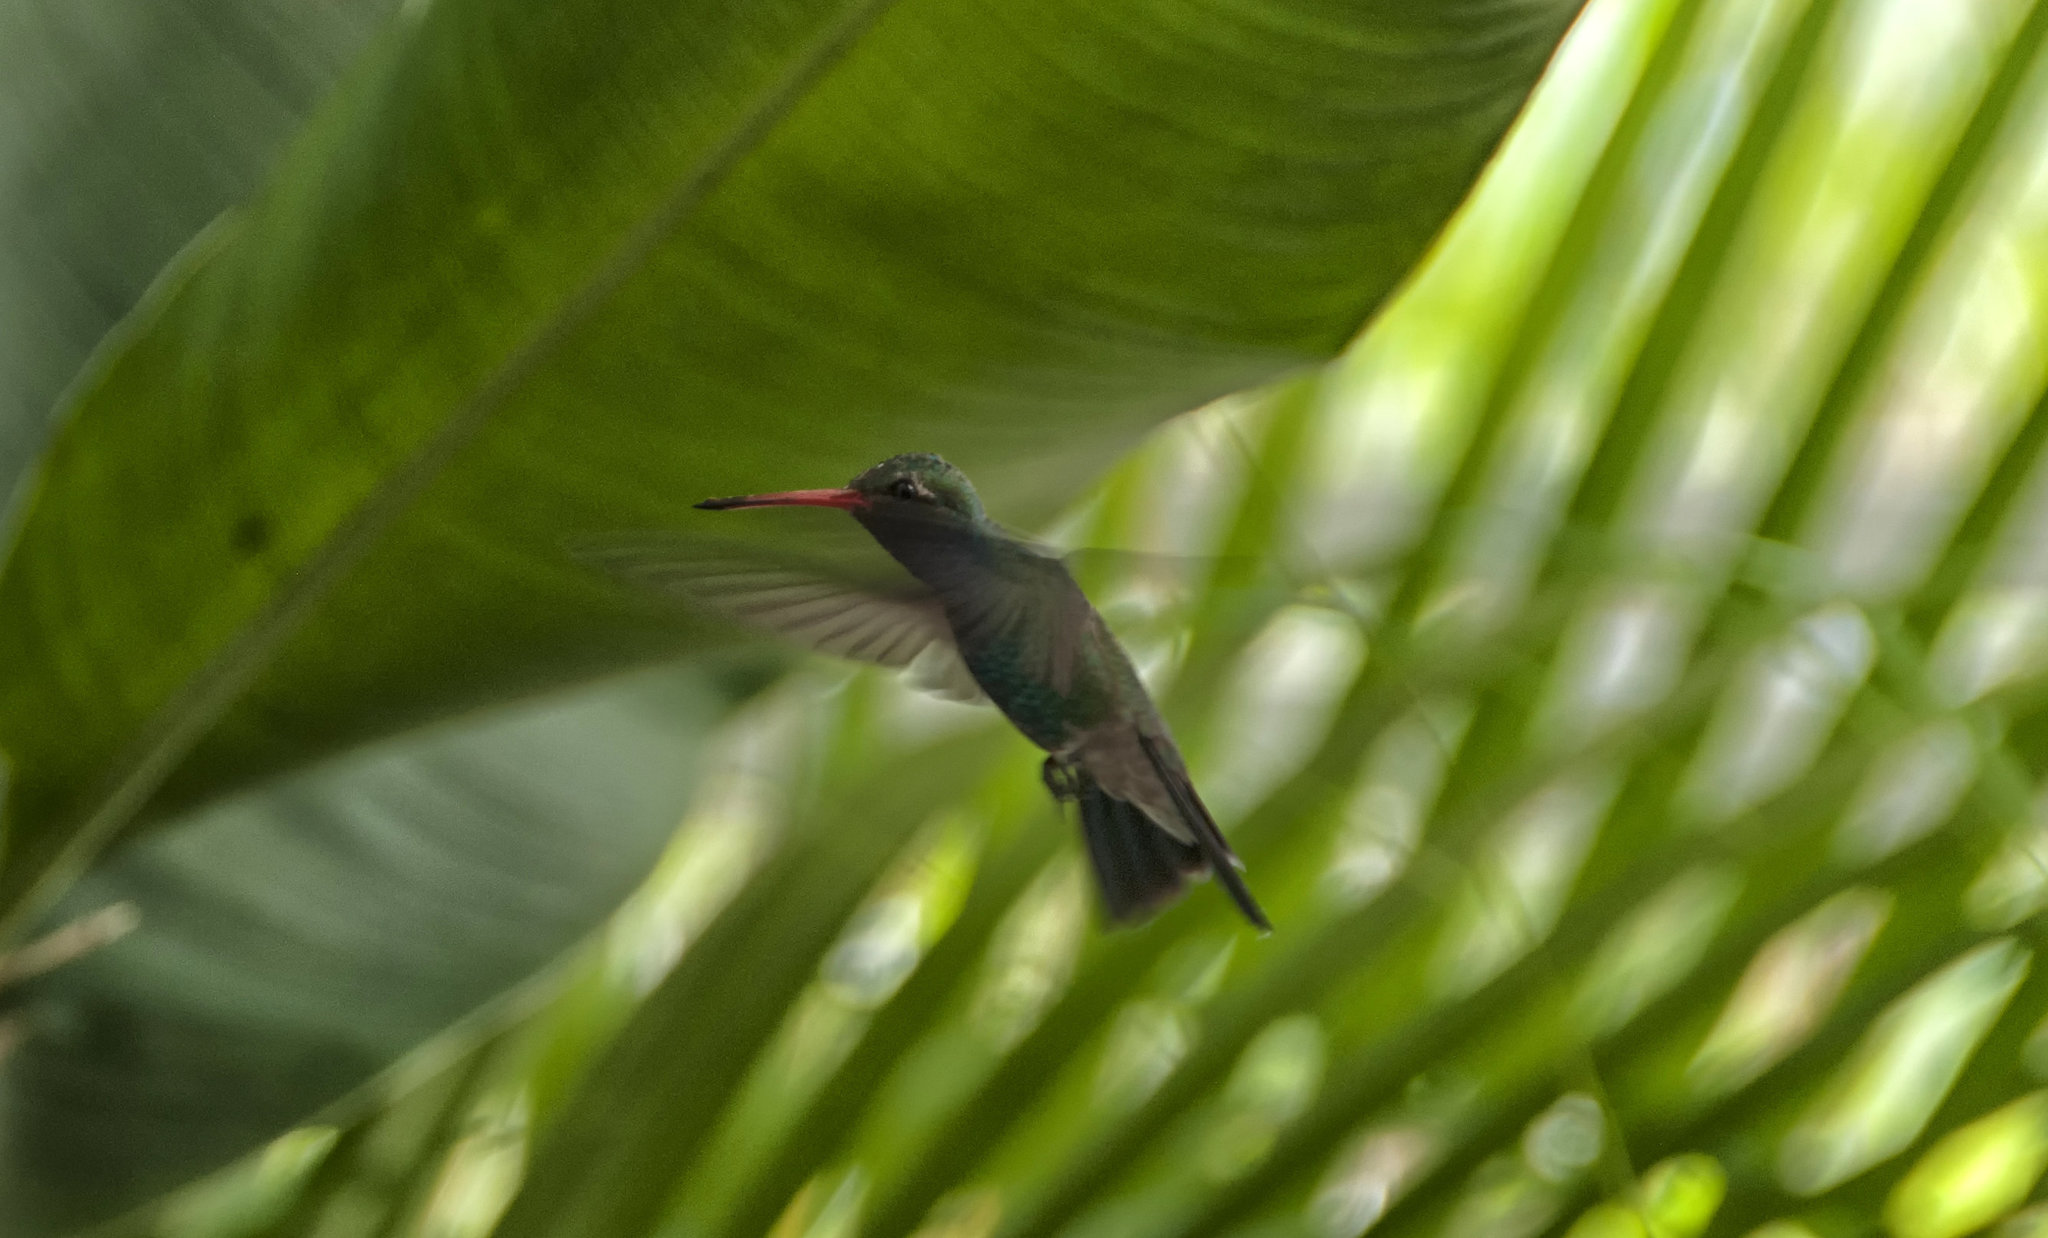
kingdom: Animalia
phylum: Chordata
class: Aves
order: Apodiformes
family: Trochilidae
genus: Cynanthus
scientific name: Cynanthus latirostris
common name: Broad-billed hummingbird
